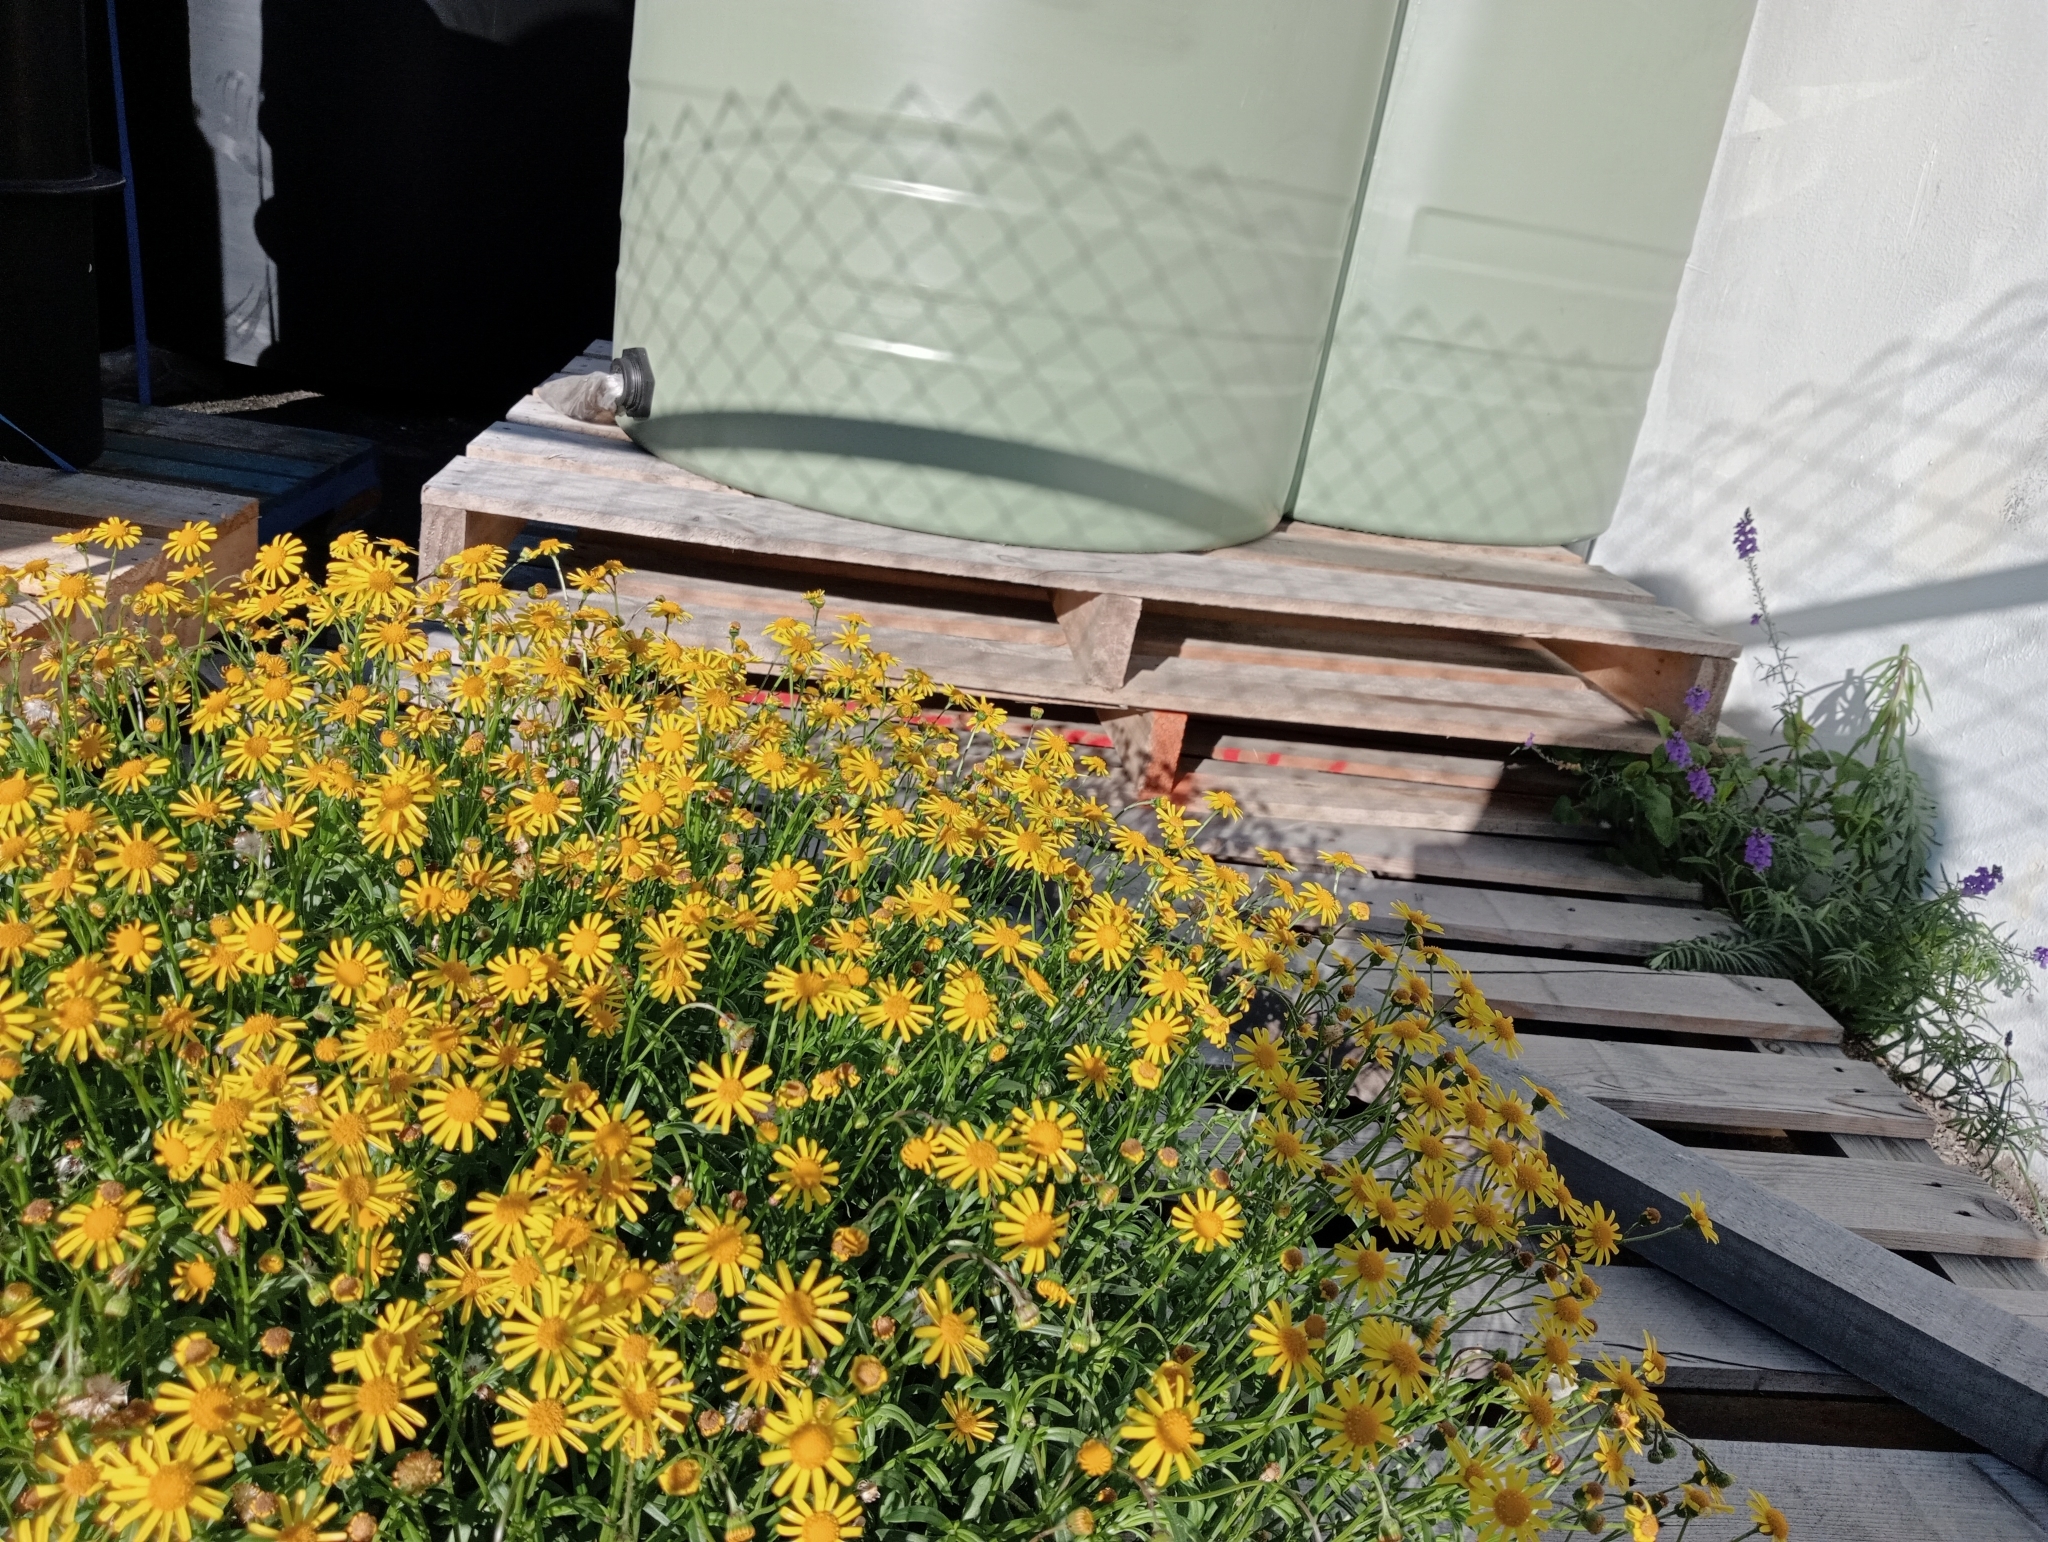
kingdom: Plantae
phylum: Tracheophyta
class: Magnoliopsida
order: Asterales
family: Asteraceae
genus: Senecio
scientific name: Senecio skirrhodon
